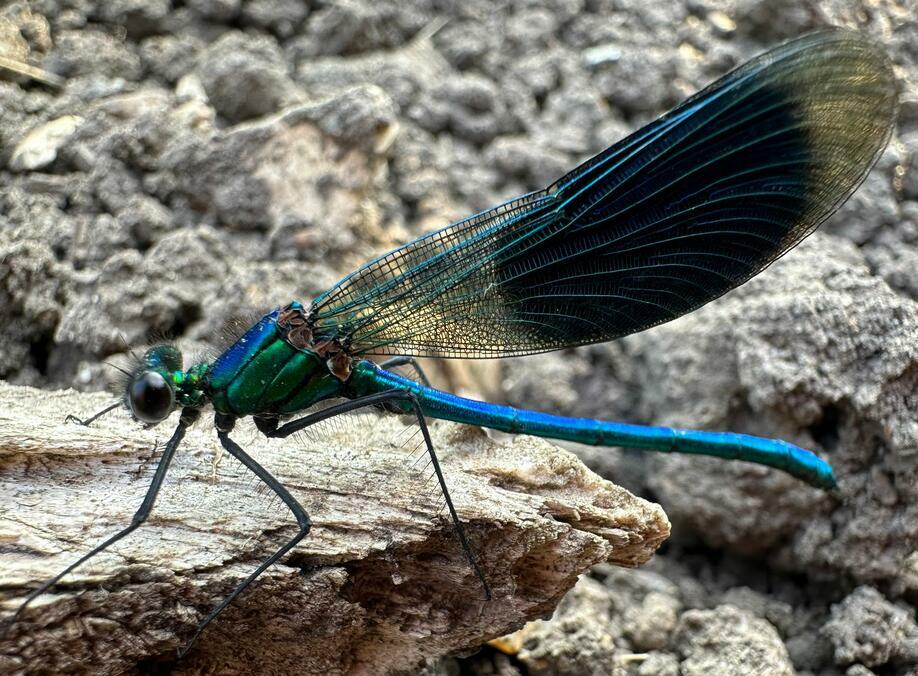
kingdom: Animalia
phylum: Arthropoda
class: Insecta
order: Odonata
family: Calopterygidae
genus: Calopteryx
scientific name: Calopteryx splendens
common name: Banded demoiselle
